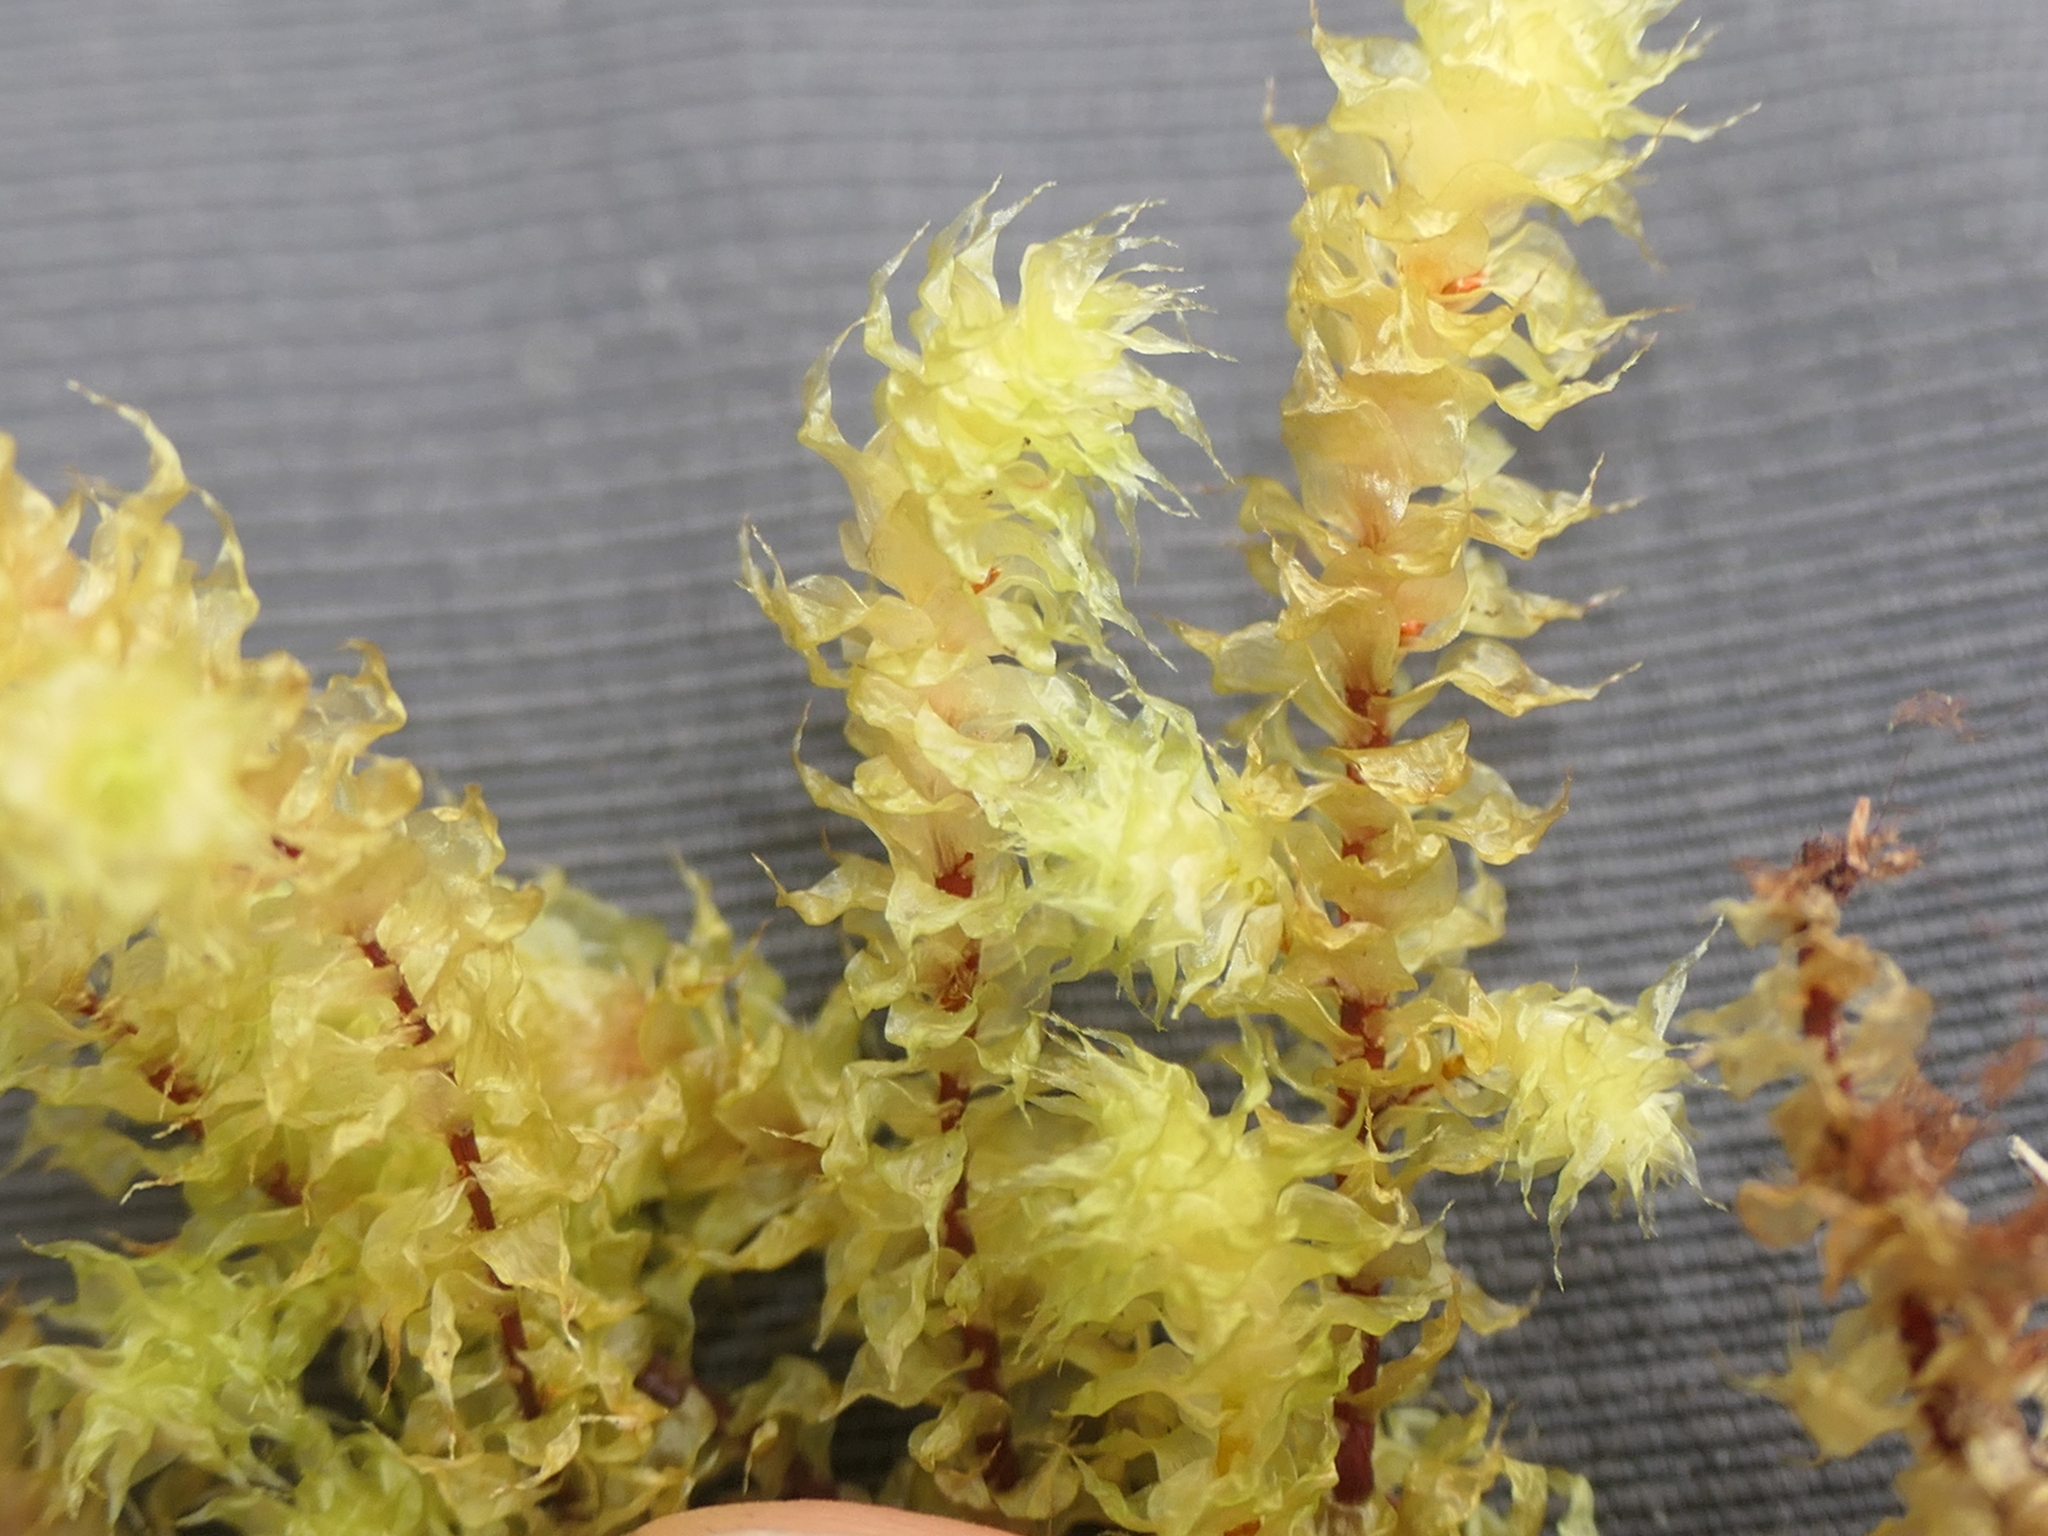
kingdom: Plantae
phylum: Bryophyta
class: Bryopsida
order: Ptychomniales
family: Ptychomniaceae
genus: Ptychomnion
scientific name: Ptychomnion aciculare
